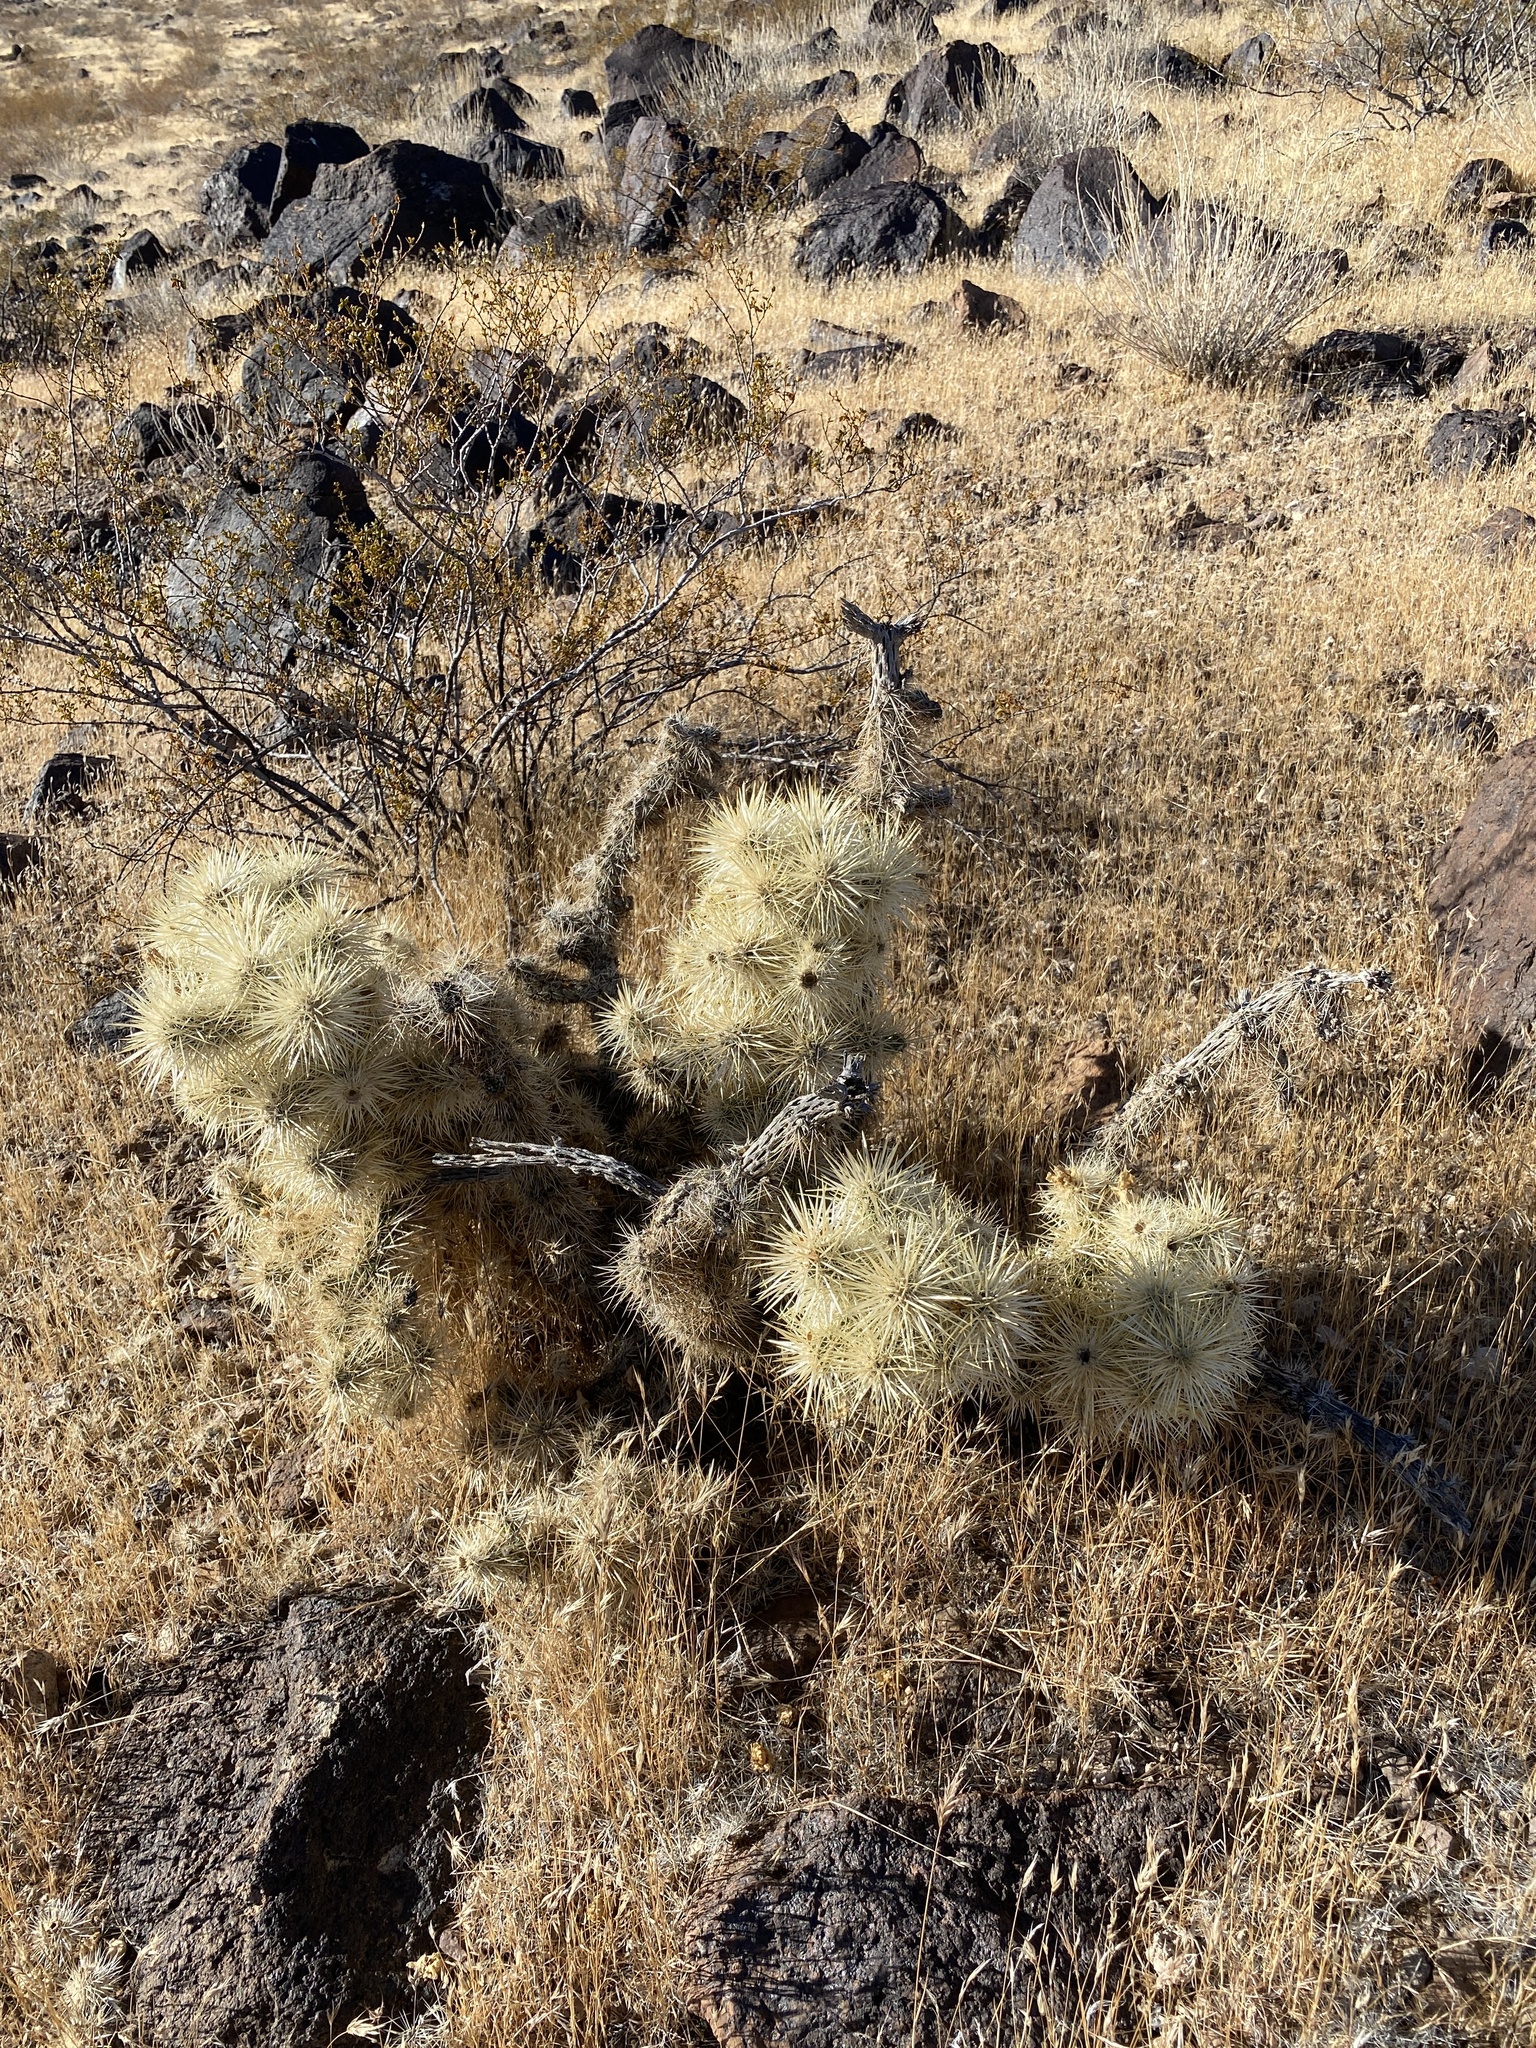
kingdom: Plantae
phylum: Tracheophyta
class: Magnoliopsida
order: Caryophyllales
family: Cactaceae
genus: Cylindropuntia
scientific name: Cylindropuntia echinocarpa
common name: Ground cholla
